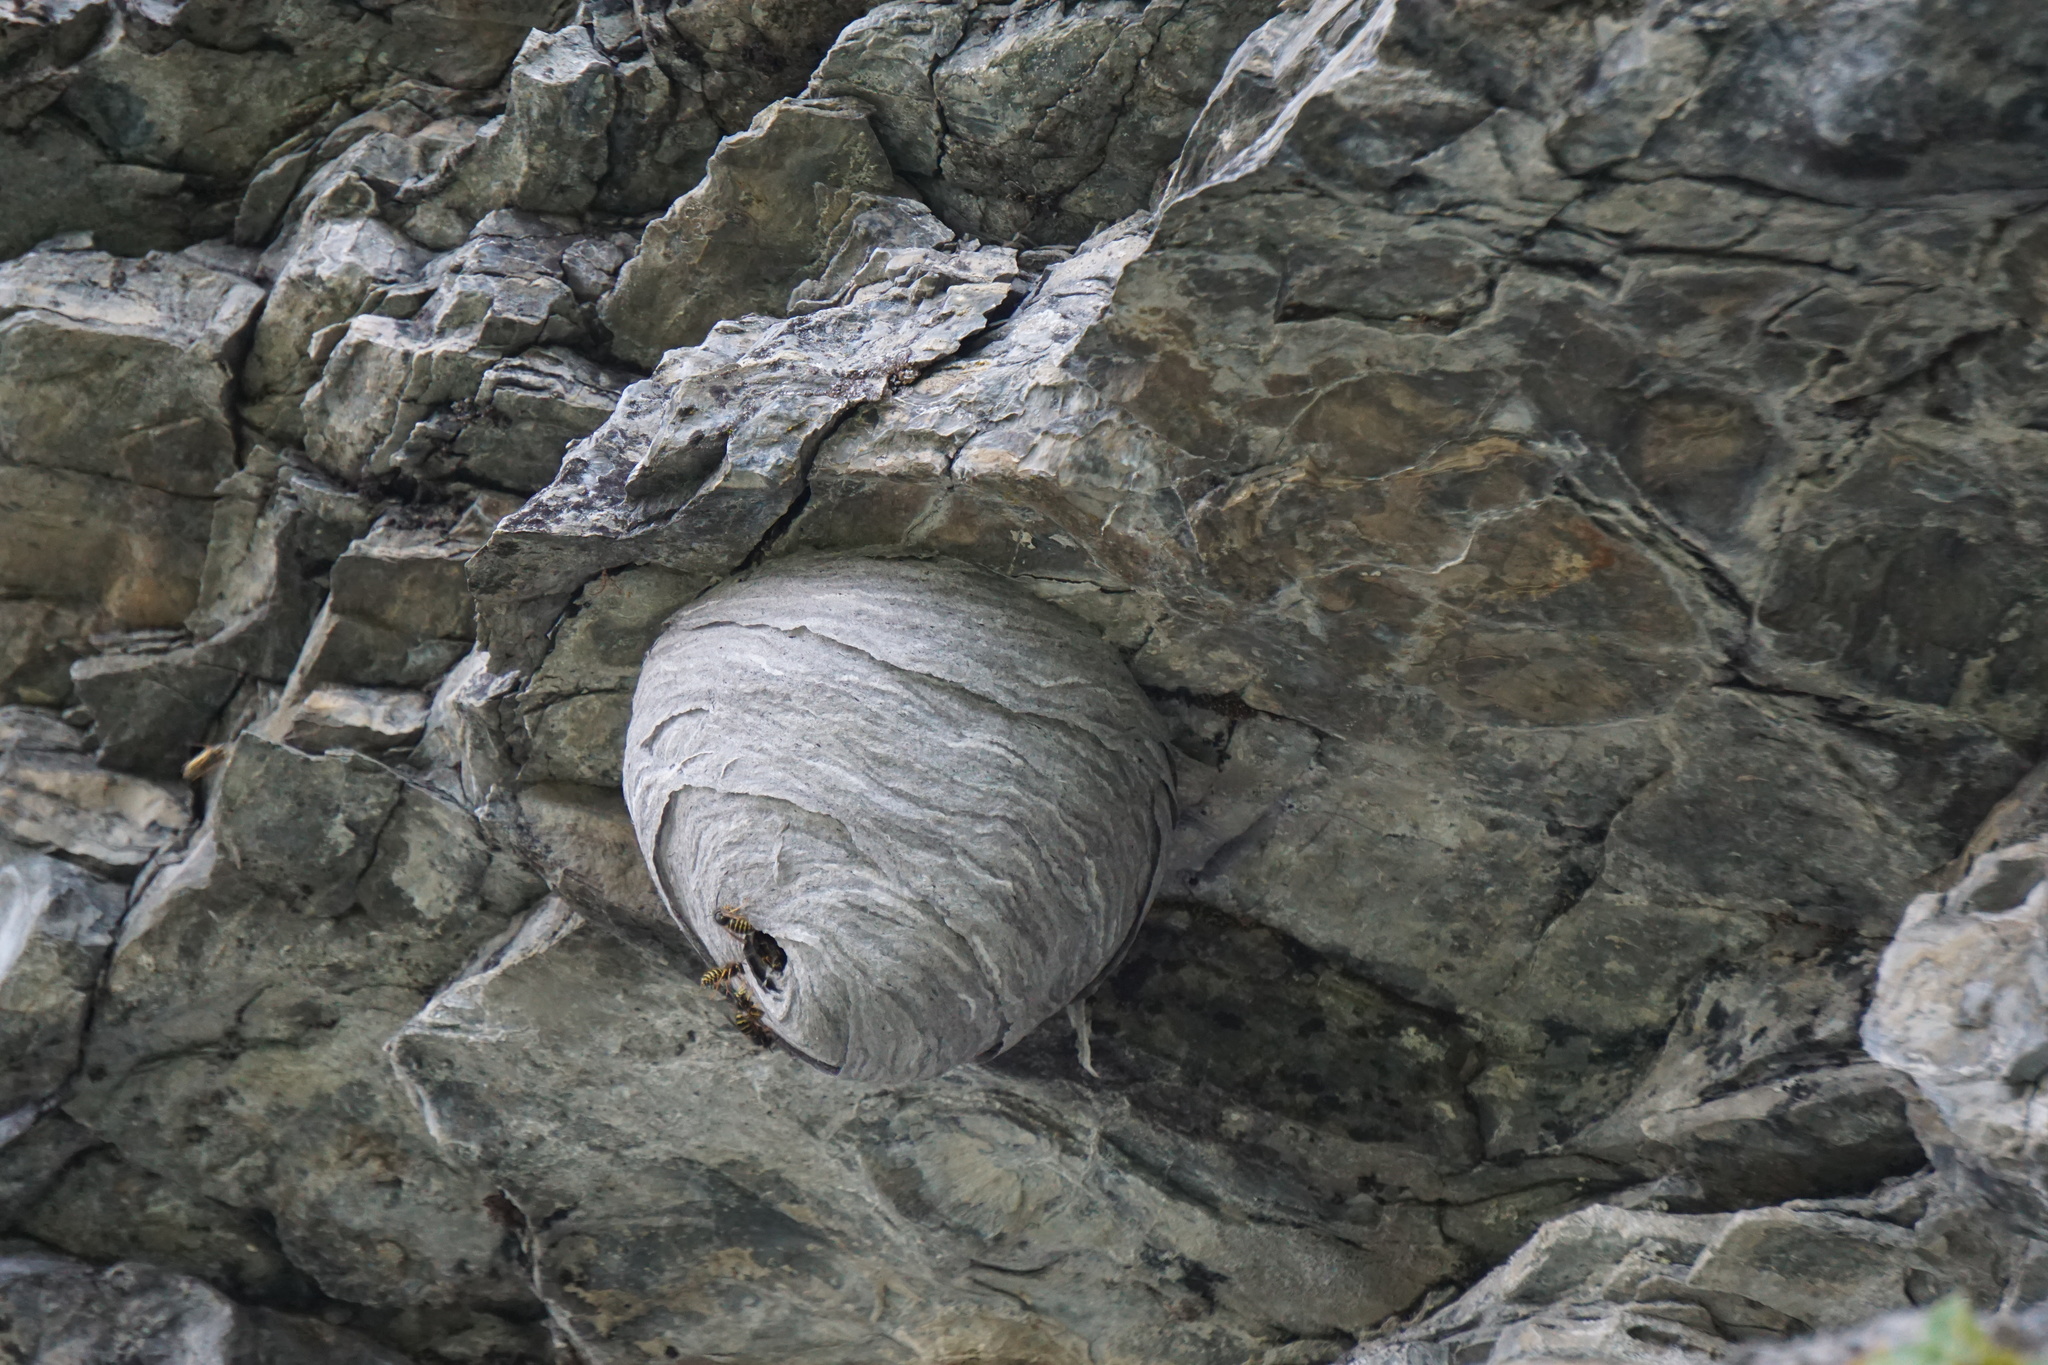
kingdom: Animalia
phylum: Arthropoda
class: Insecta
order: Hymenoptera
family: Vespidae
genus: Dolichovespula
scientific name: Dolichovespula alpicola
